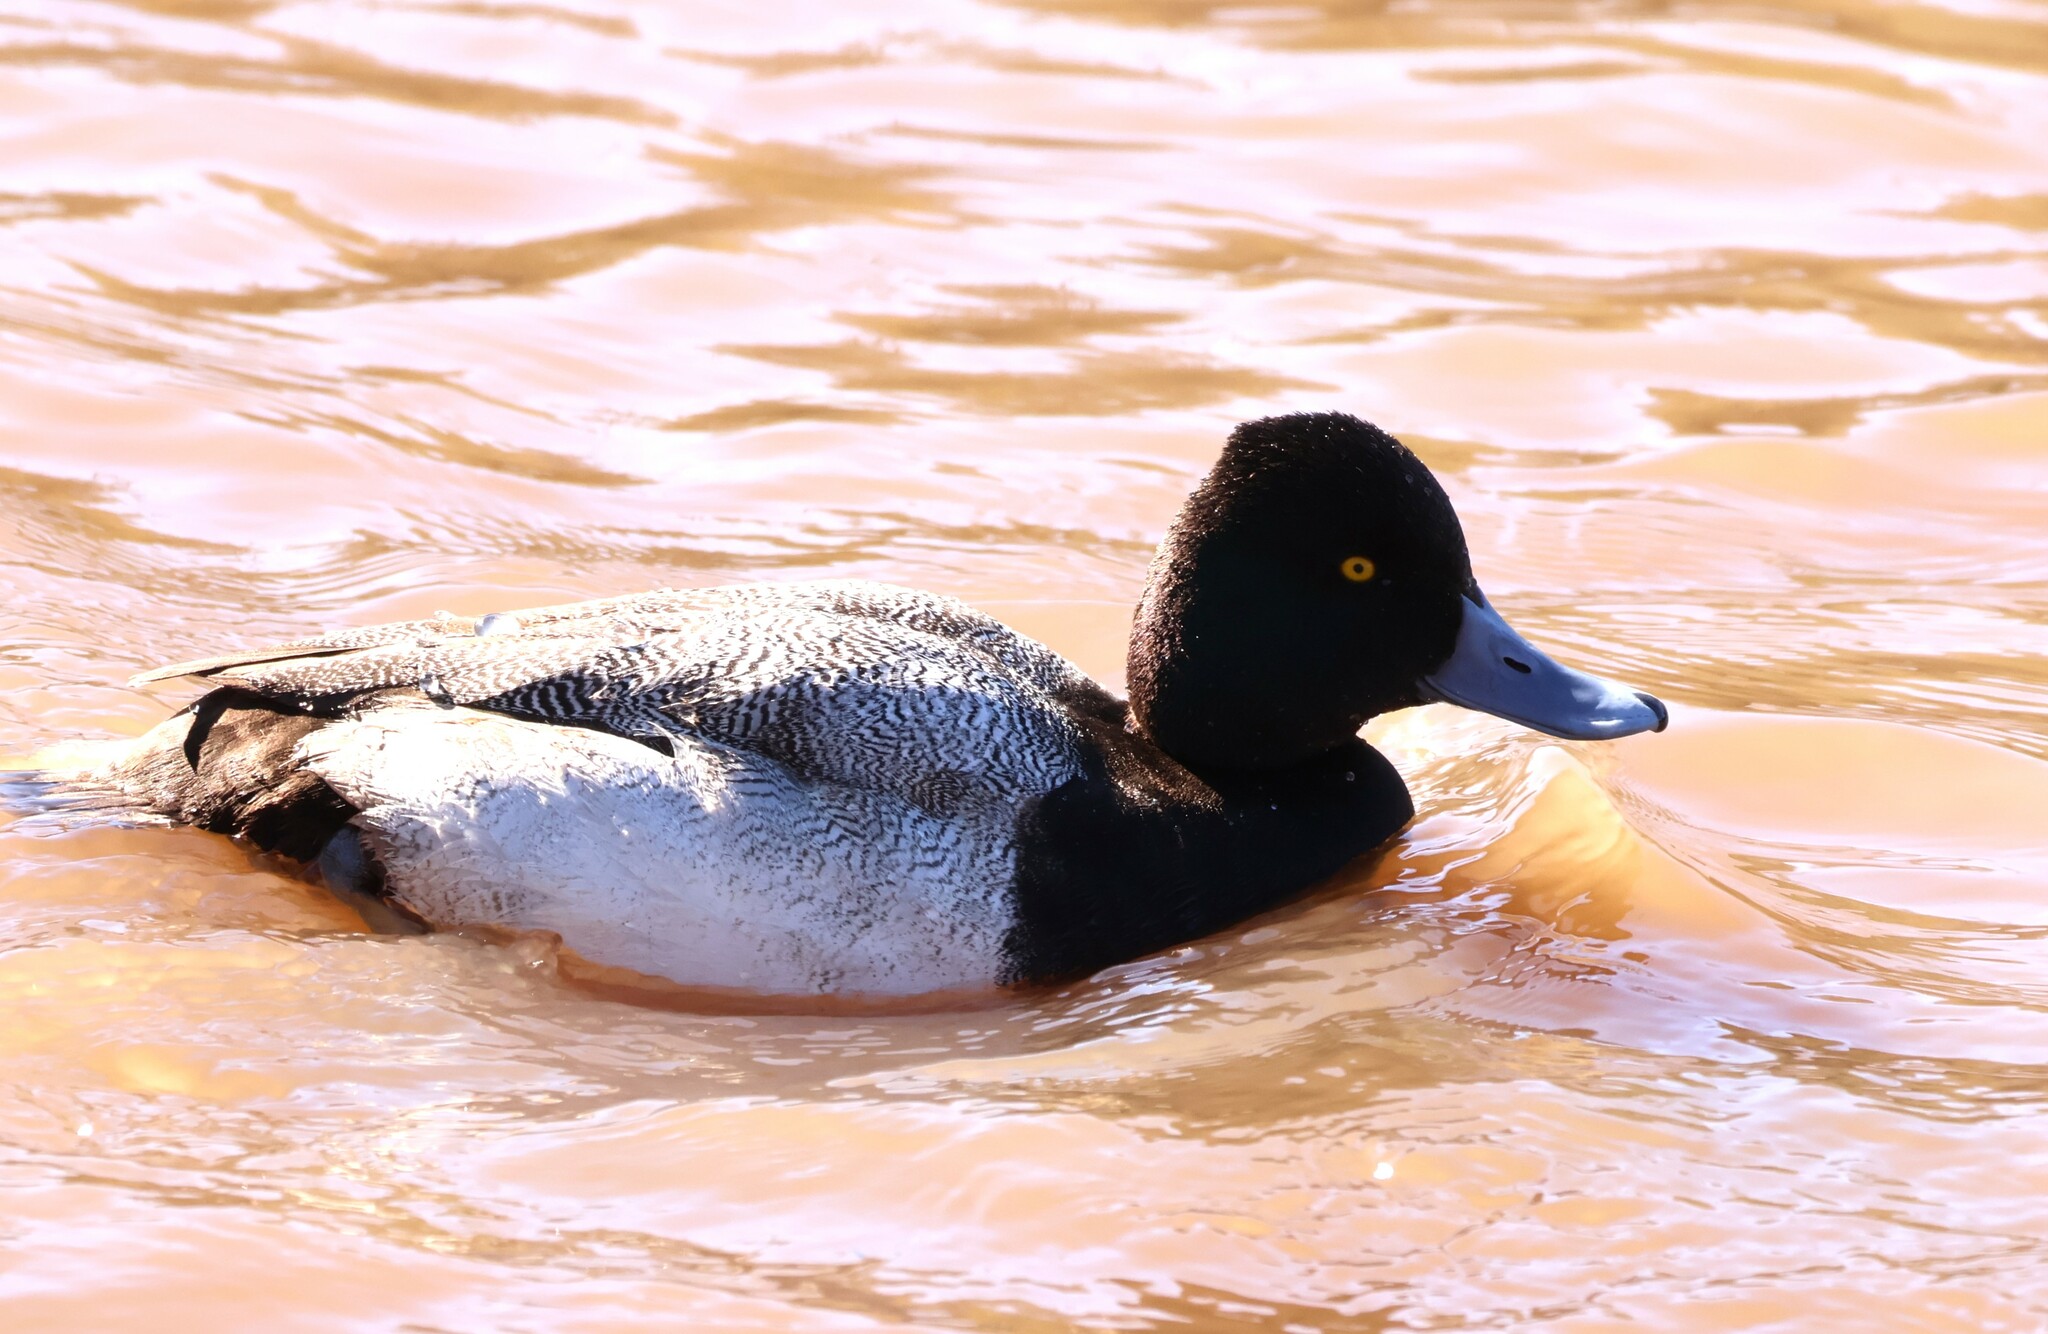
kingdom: Animalia
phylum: Chordata
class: Aves
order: Anseriformes
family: Anatidae
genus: Aythya
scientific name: Aythya affinis
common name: Lesser scaup
